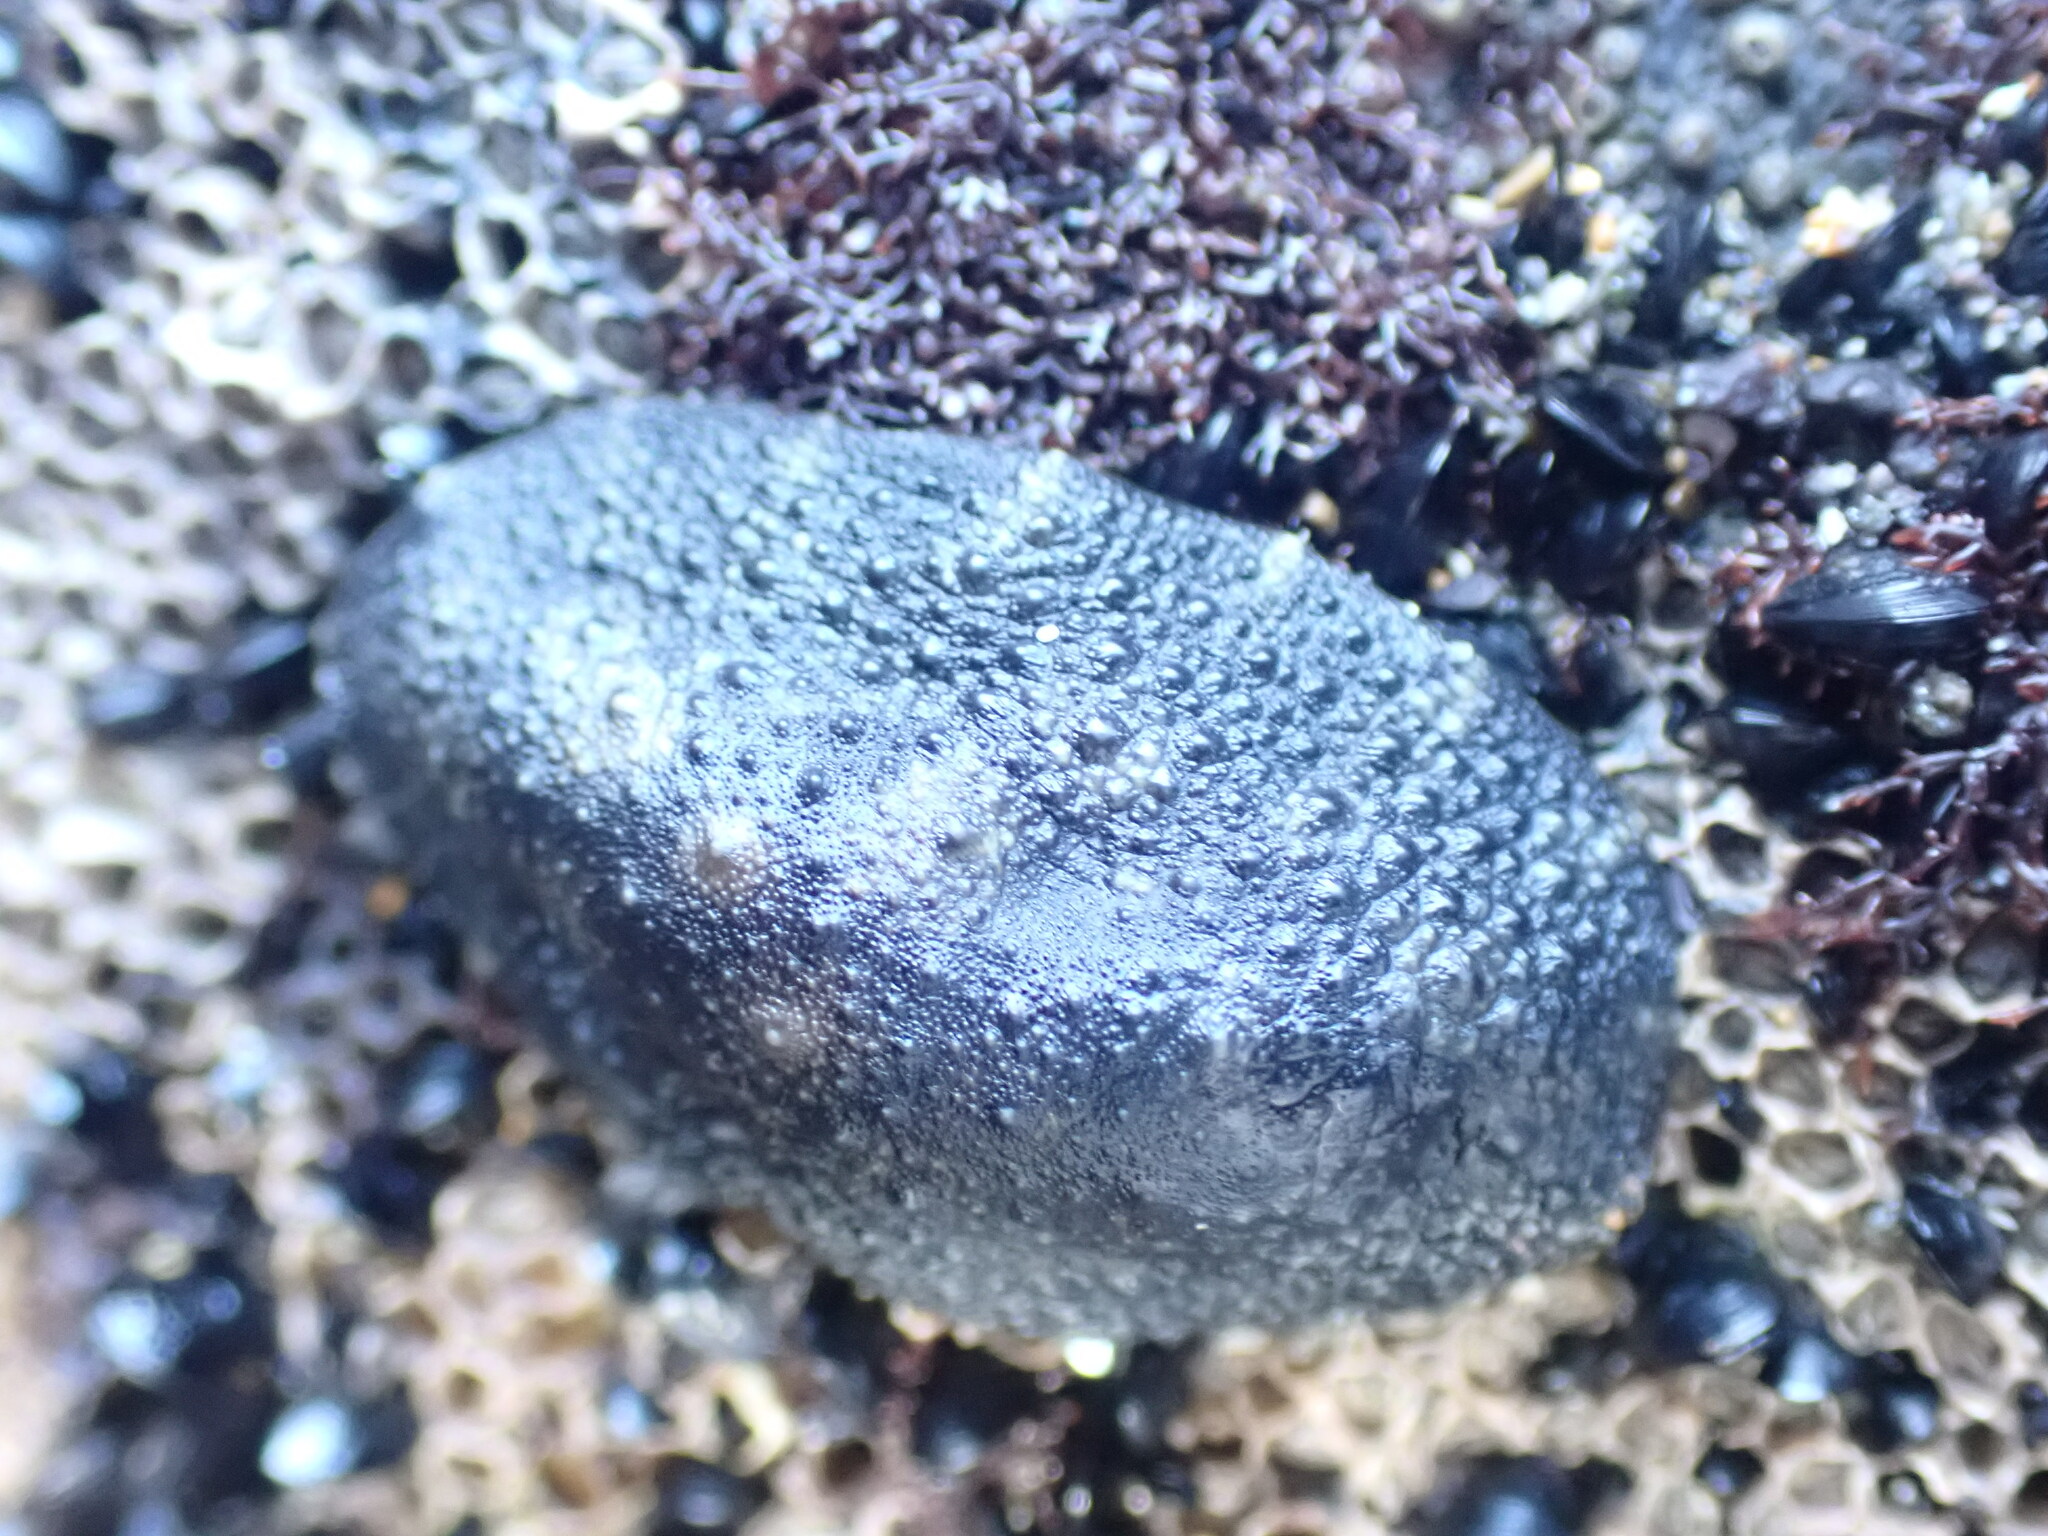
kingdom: Animalia
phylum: Mollusca
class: Gastropoda
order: Systellommatophora
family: Onchidiidae
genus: Onchidella
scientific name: Onchidella nigricans
